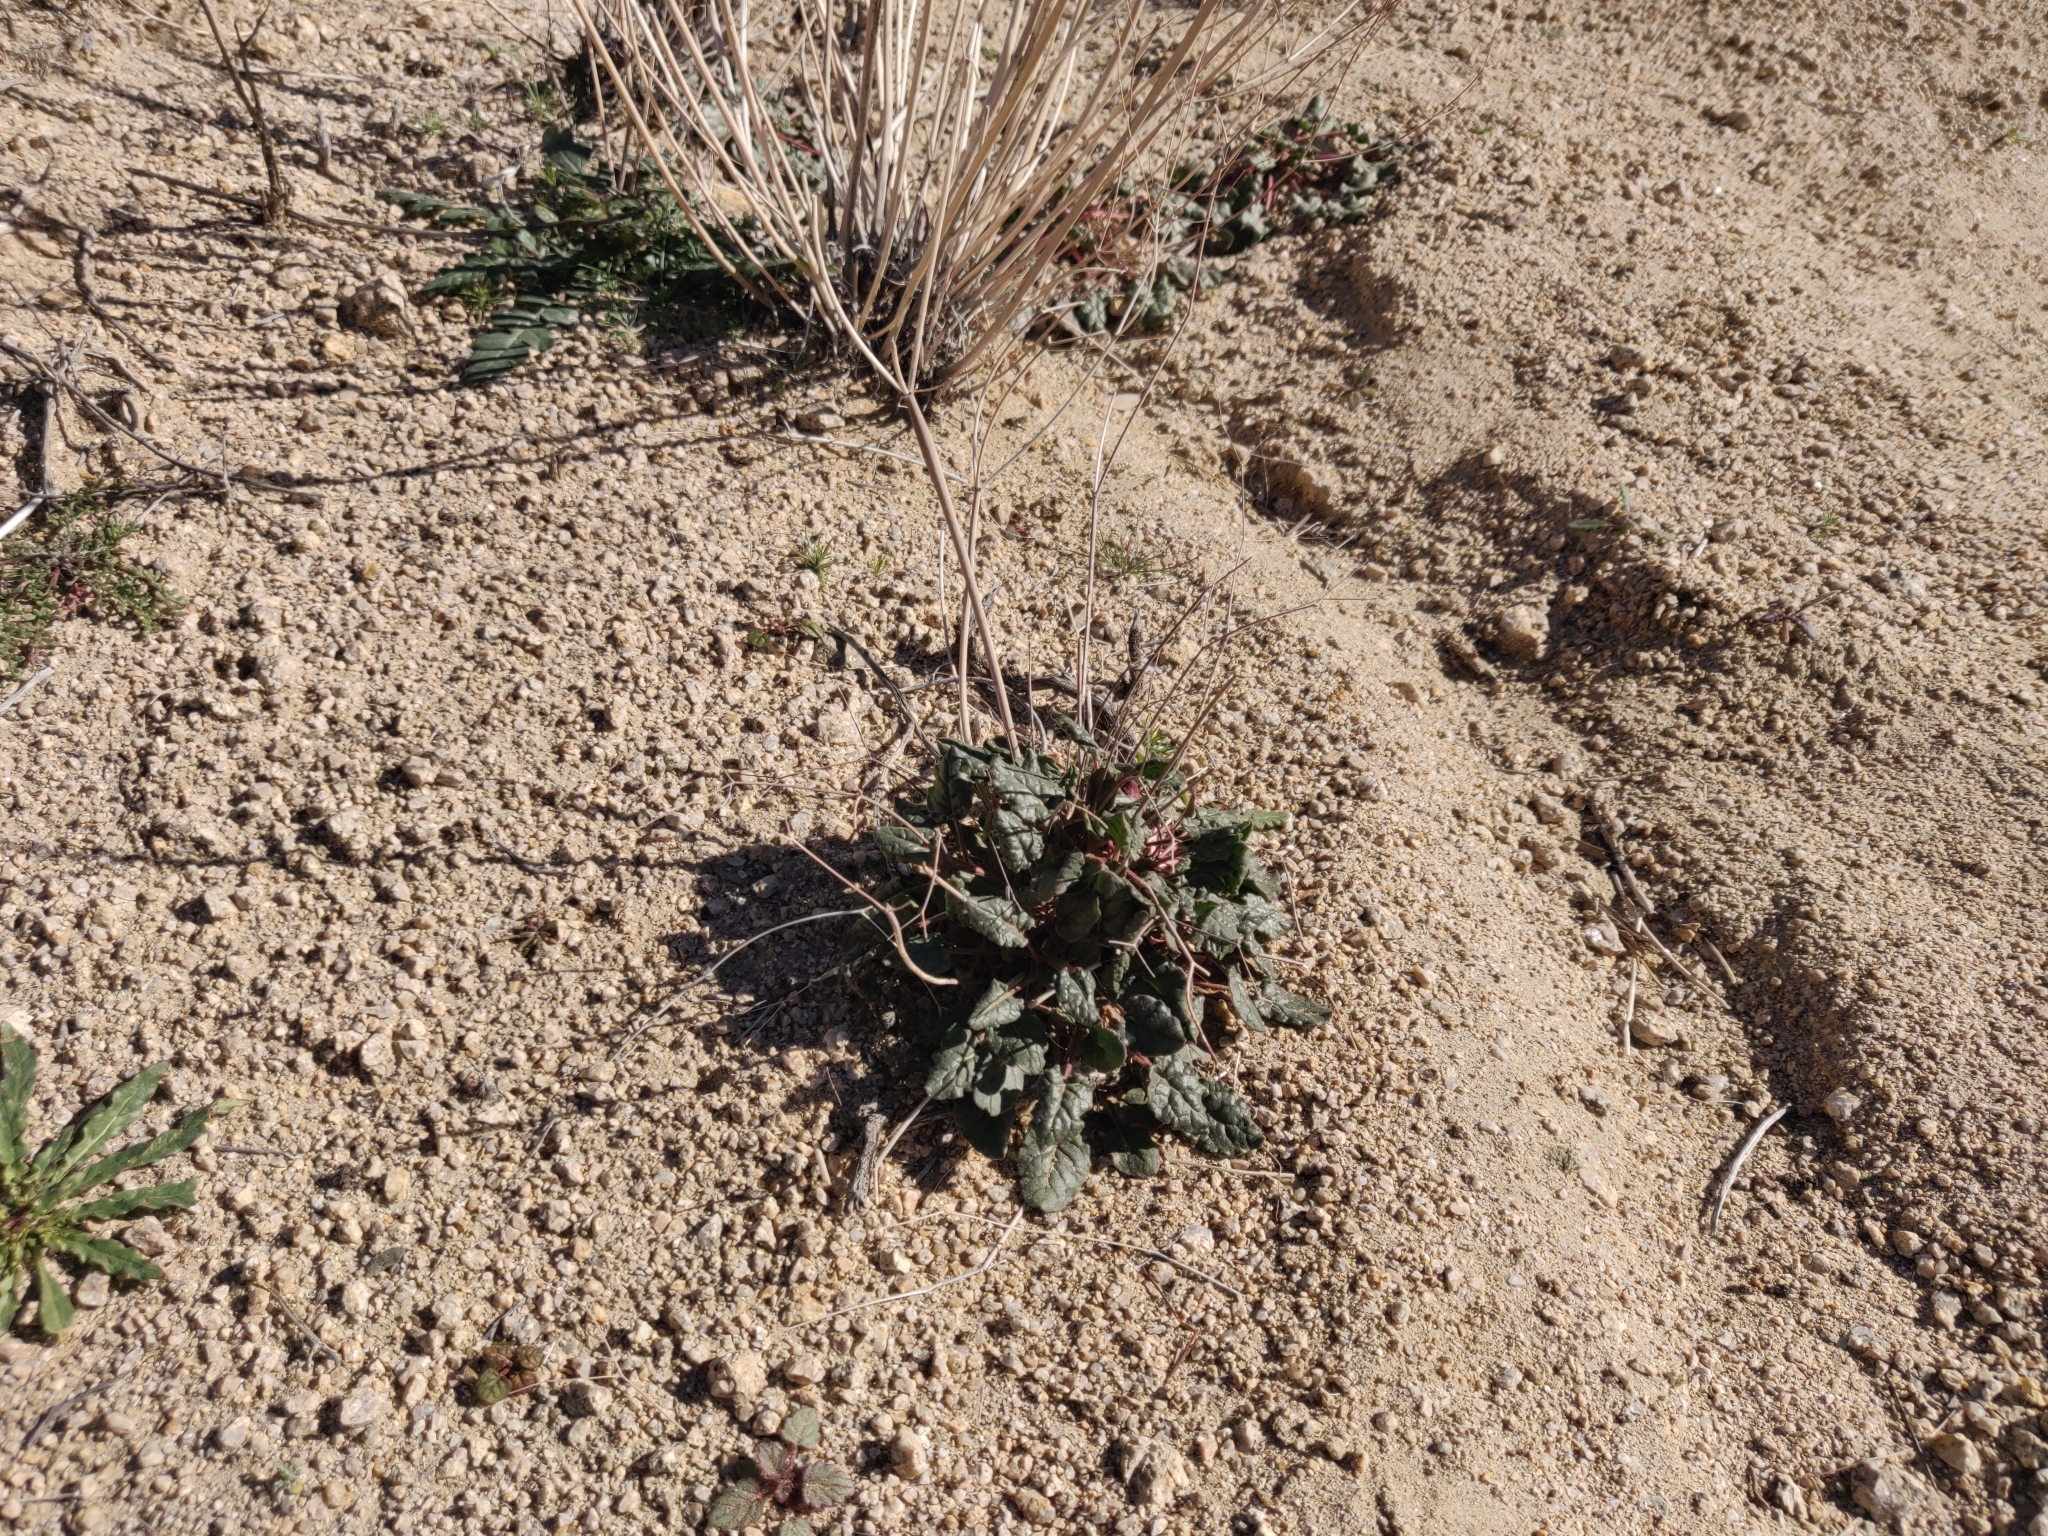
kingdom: Plantae
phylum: Tracheophyta
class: Magnoliopsida
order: Caryophyllales
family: Polygonaceae
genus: Eriogonum
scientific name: Eriogonum inflatum
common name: Desert trumpet
